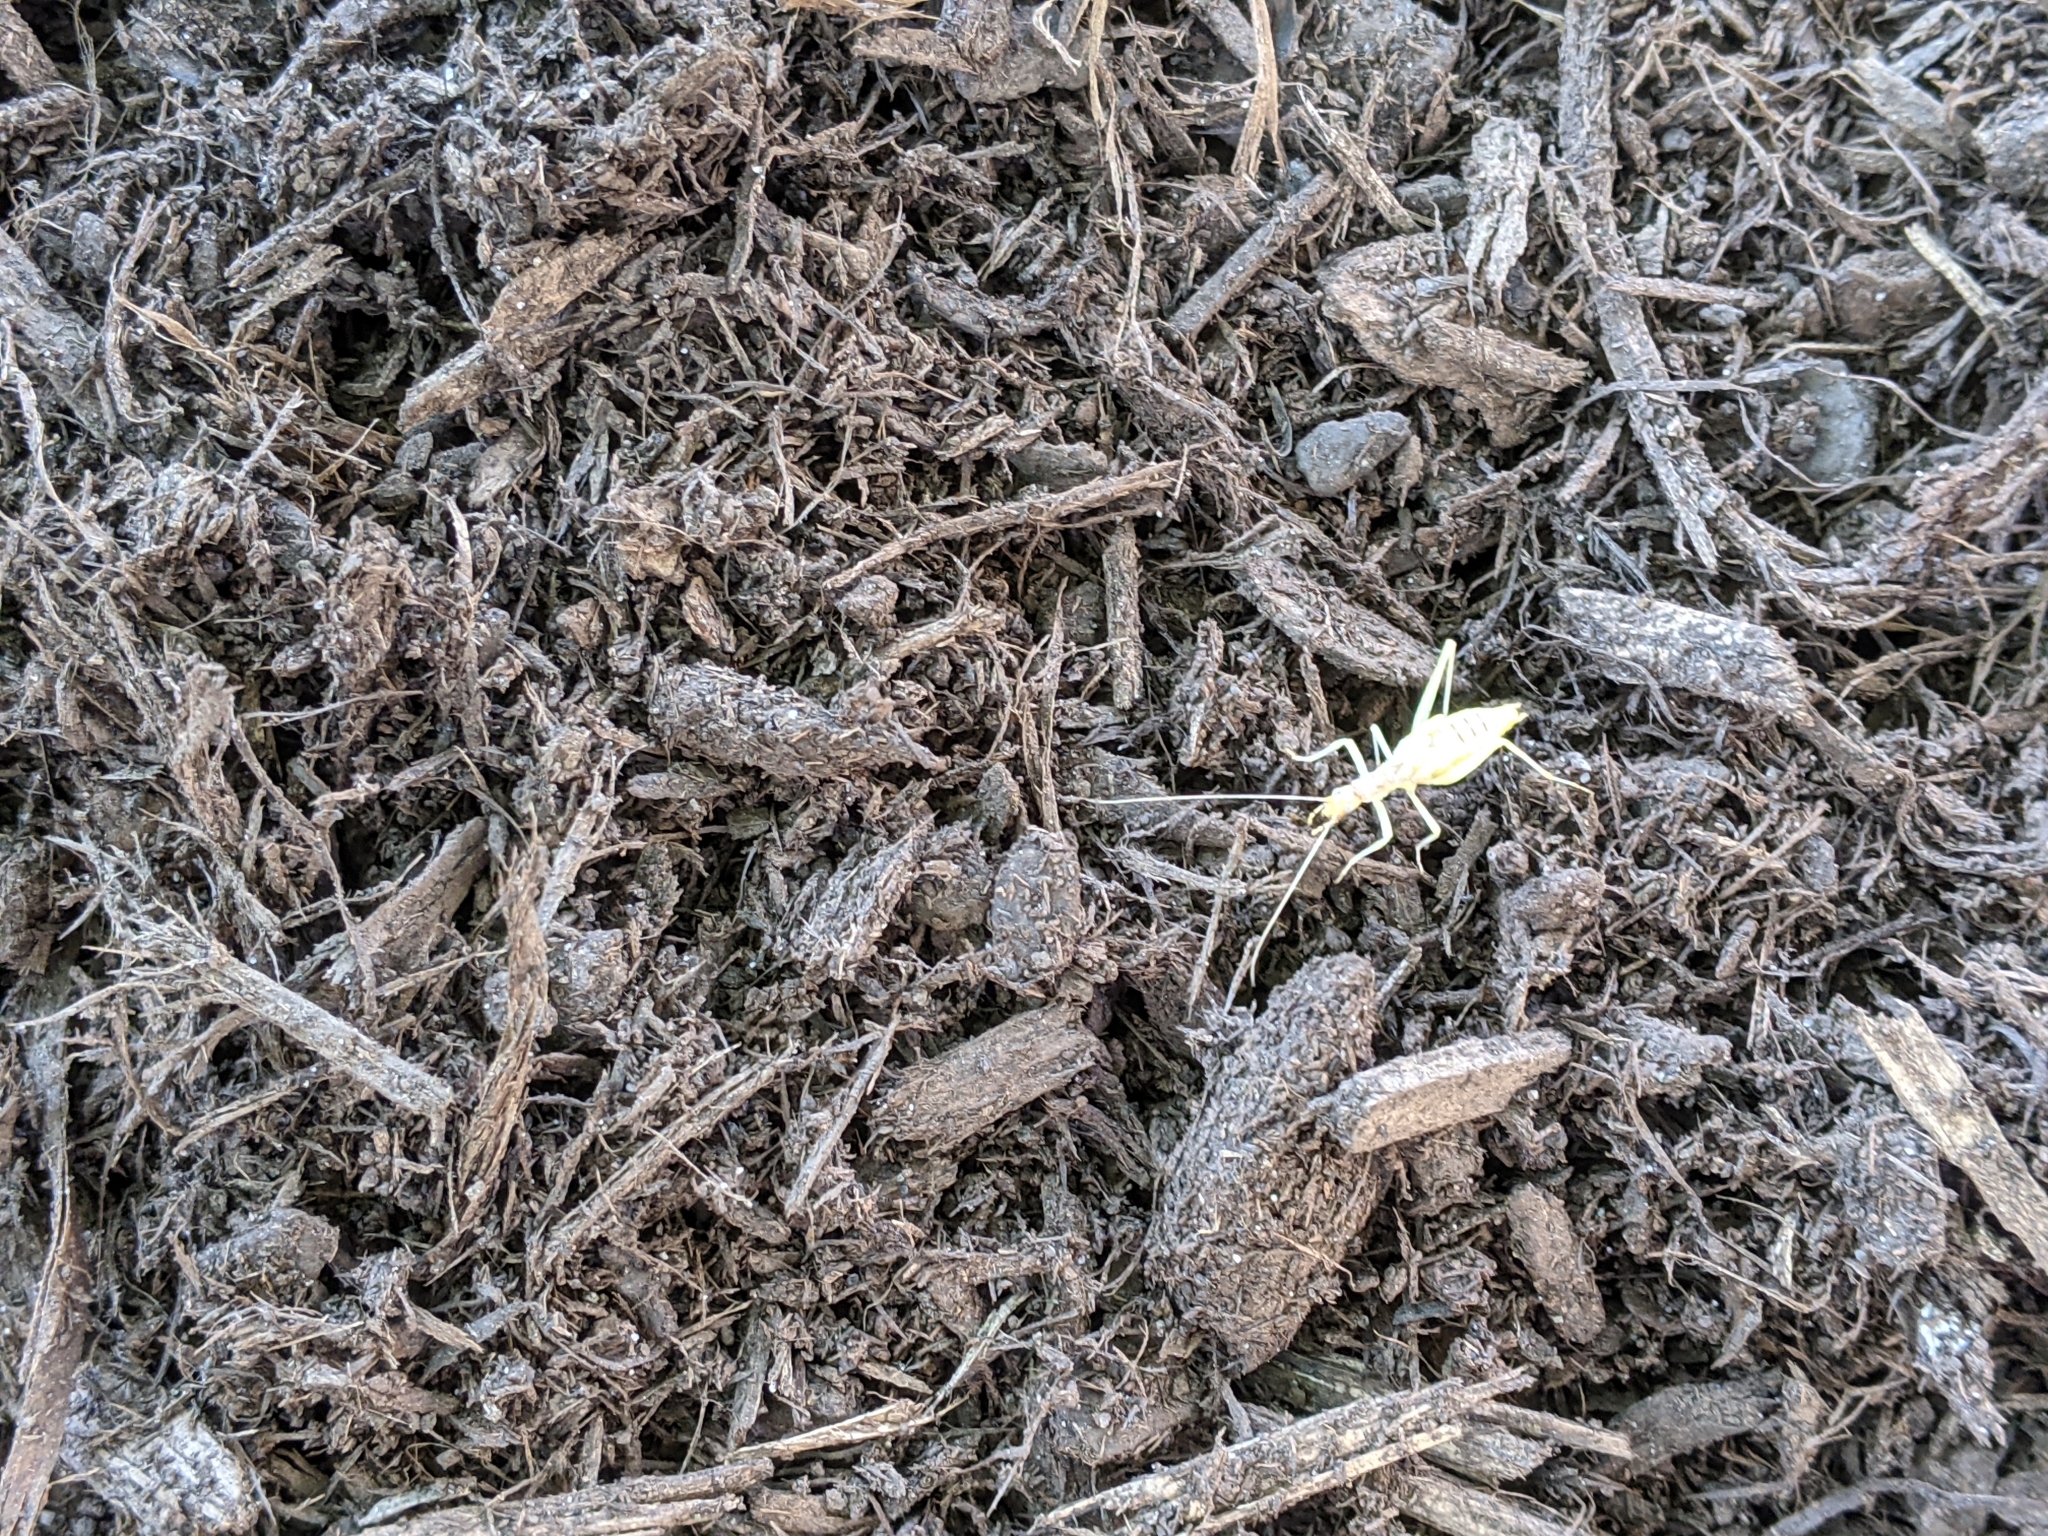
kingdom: Animalia
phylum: Arthropoda
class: Insecta
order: Orthoptera
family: Gryllidae
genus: Neoxabea
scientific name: Neoxabea bipunctata
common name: Two-spotted tree cricket
